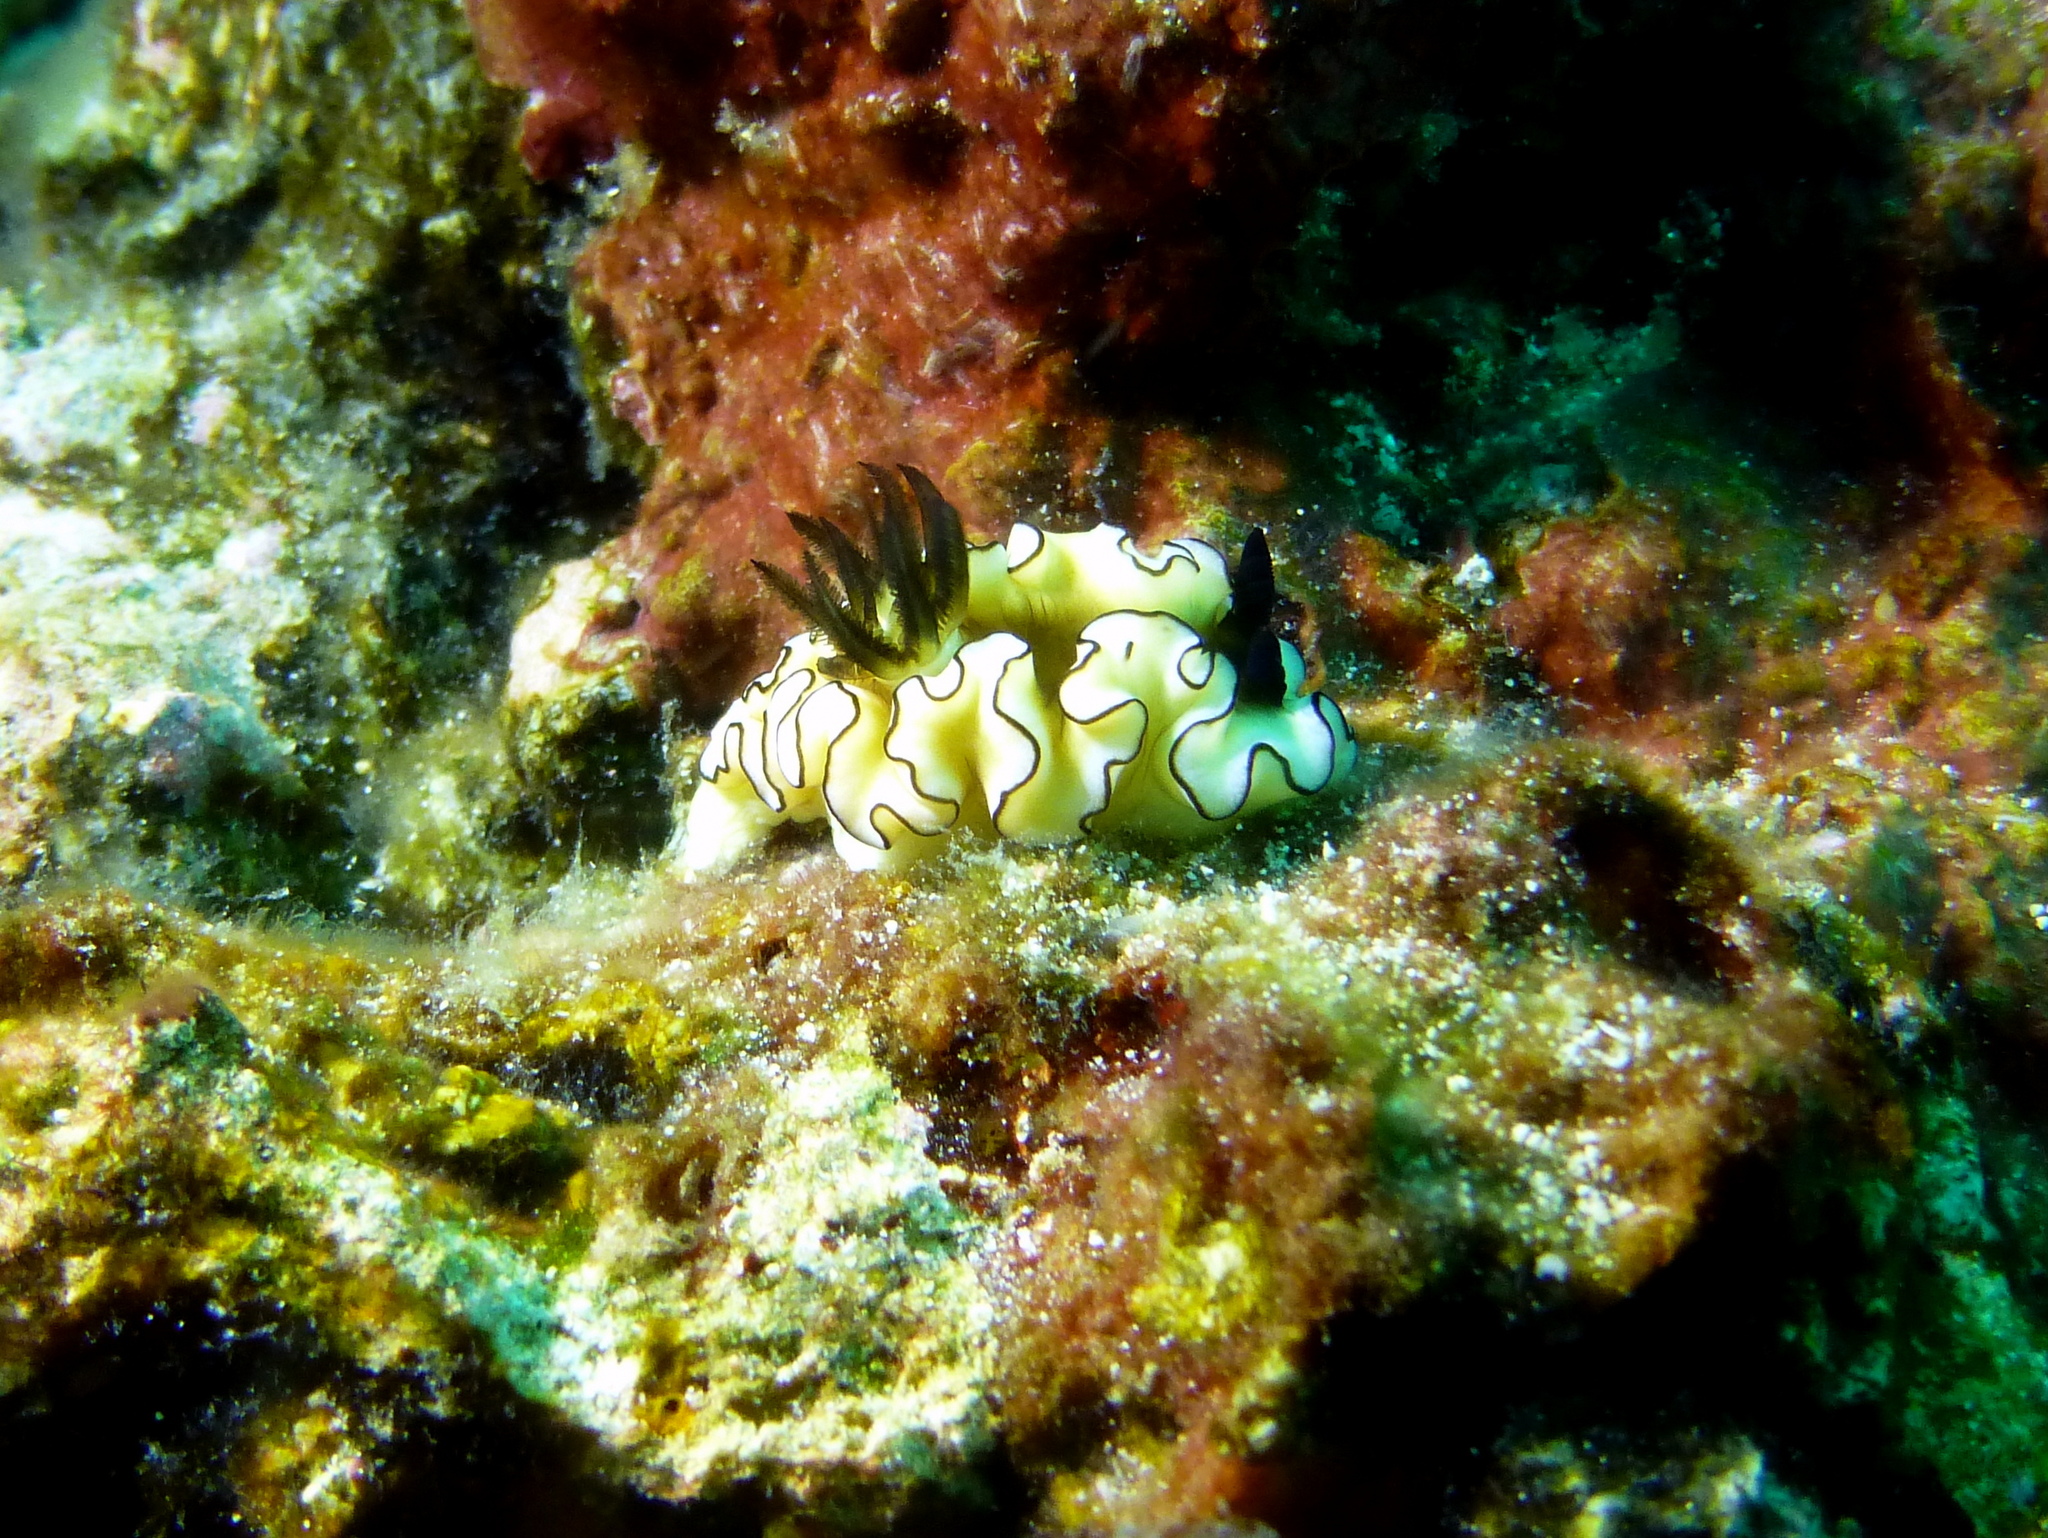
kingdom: Animalia
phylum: Mollusca
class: Gastropoda
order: Nudibranchia
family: Chromodorididae
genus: Doriprismatica
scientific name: Doriprismatica atromarginata
